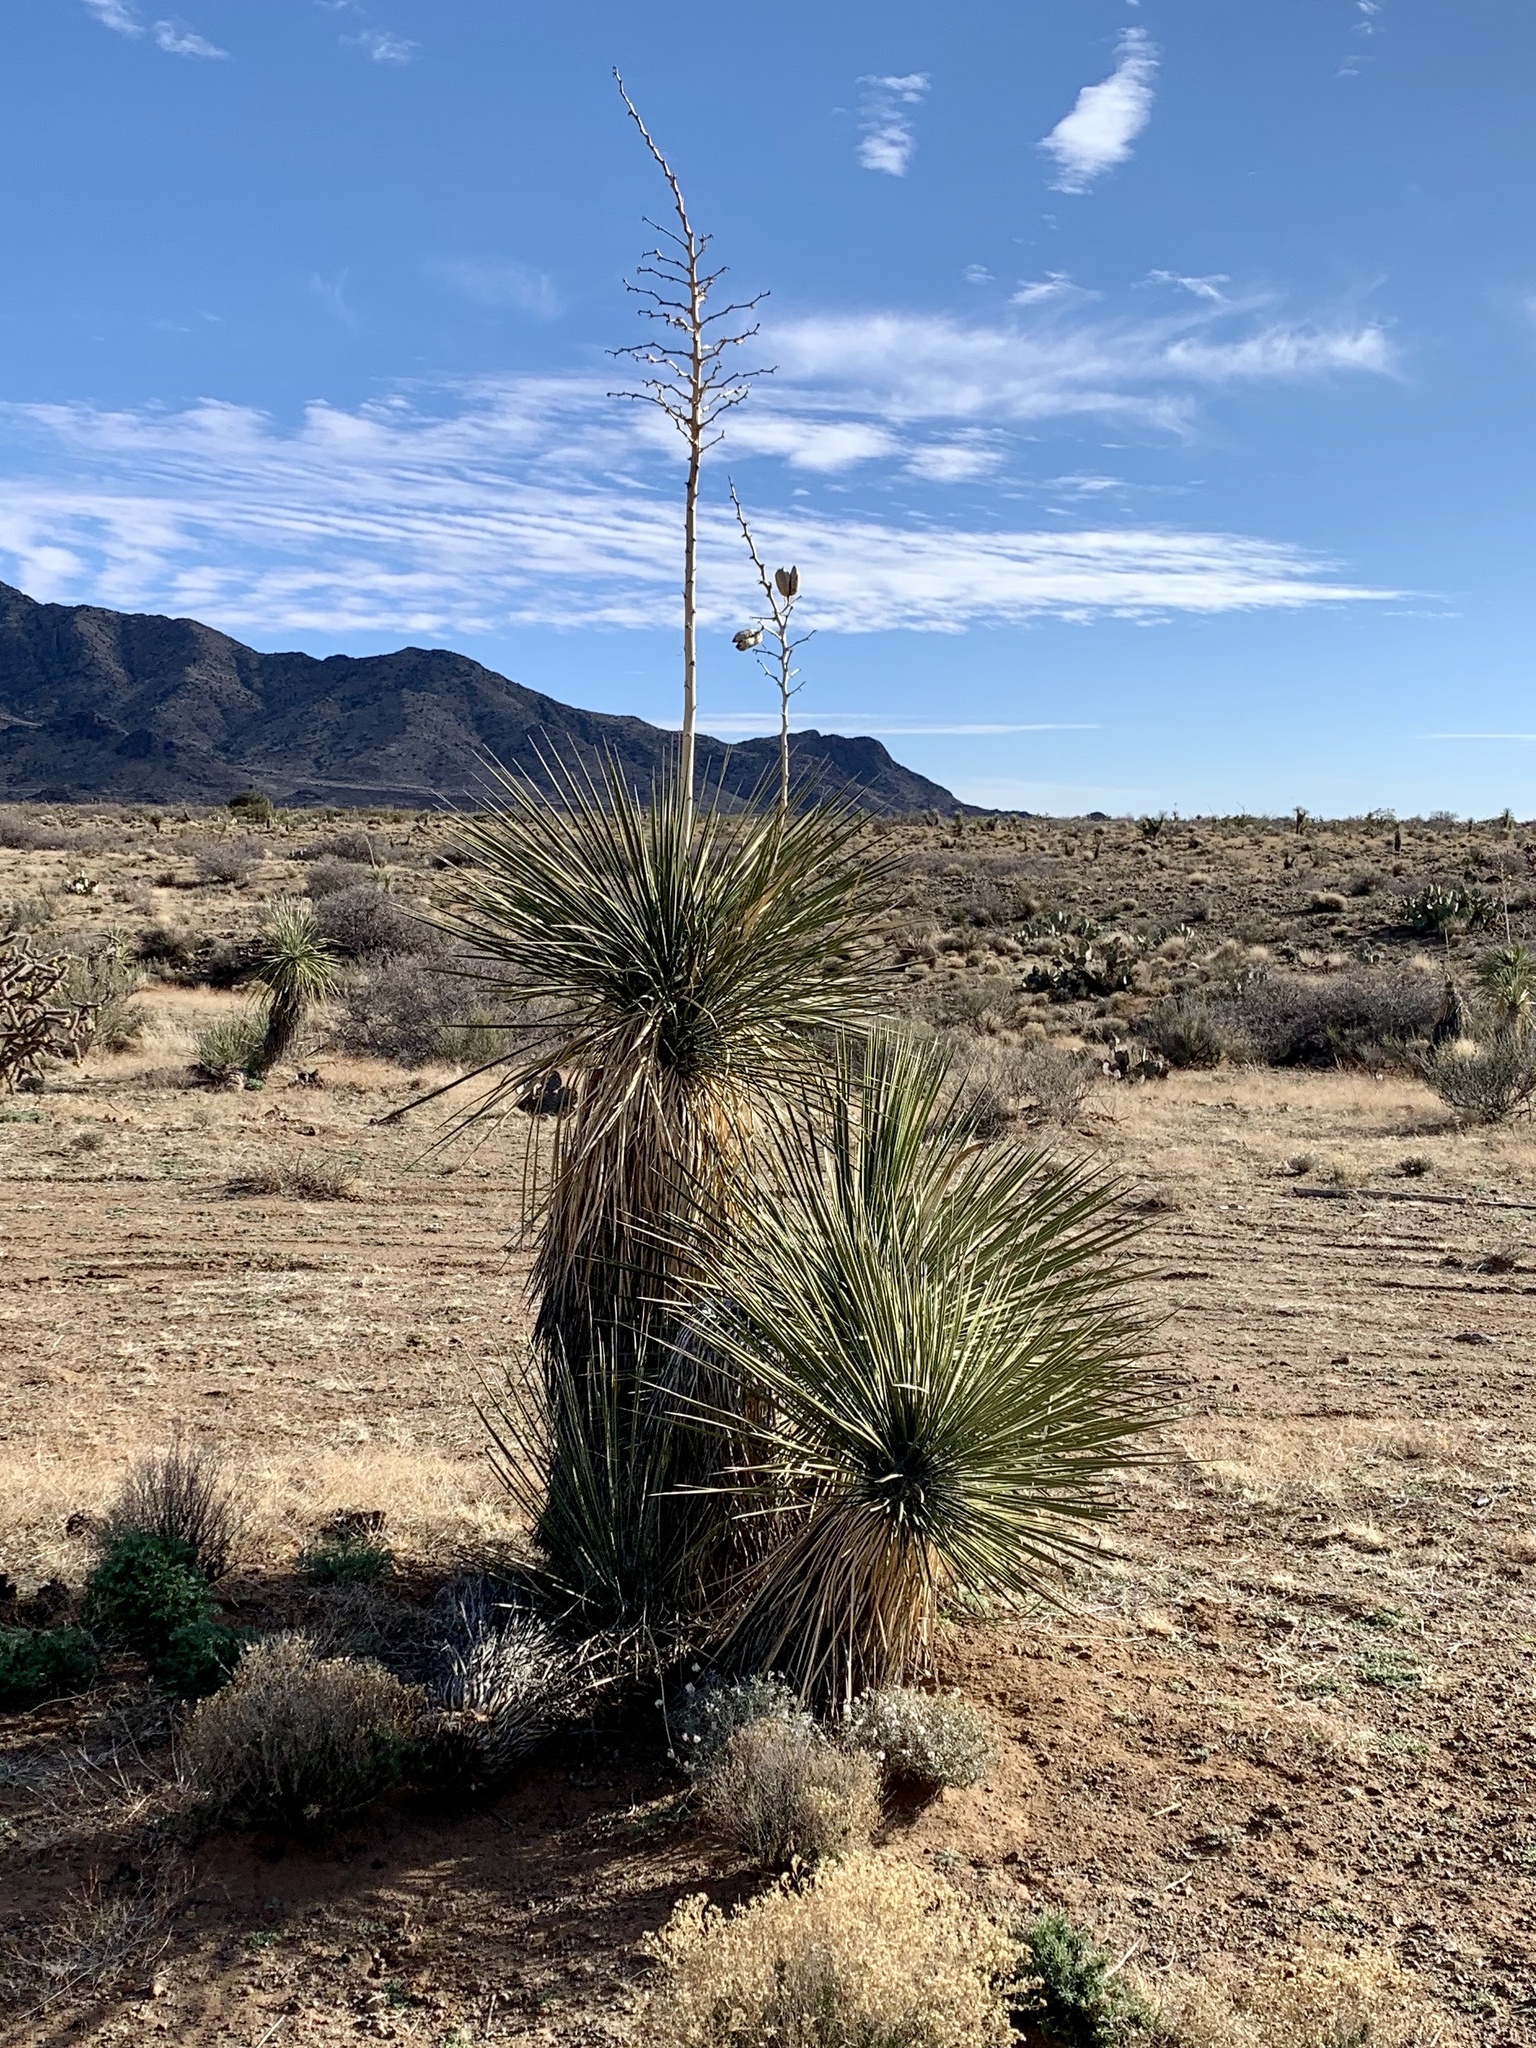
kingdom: Plantae
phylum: Tracheophyta
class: Liliopsida
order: Asparagales
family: Asparagaceae
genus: Yucca
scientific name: Yucca elata
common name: Palmella
